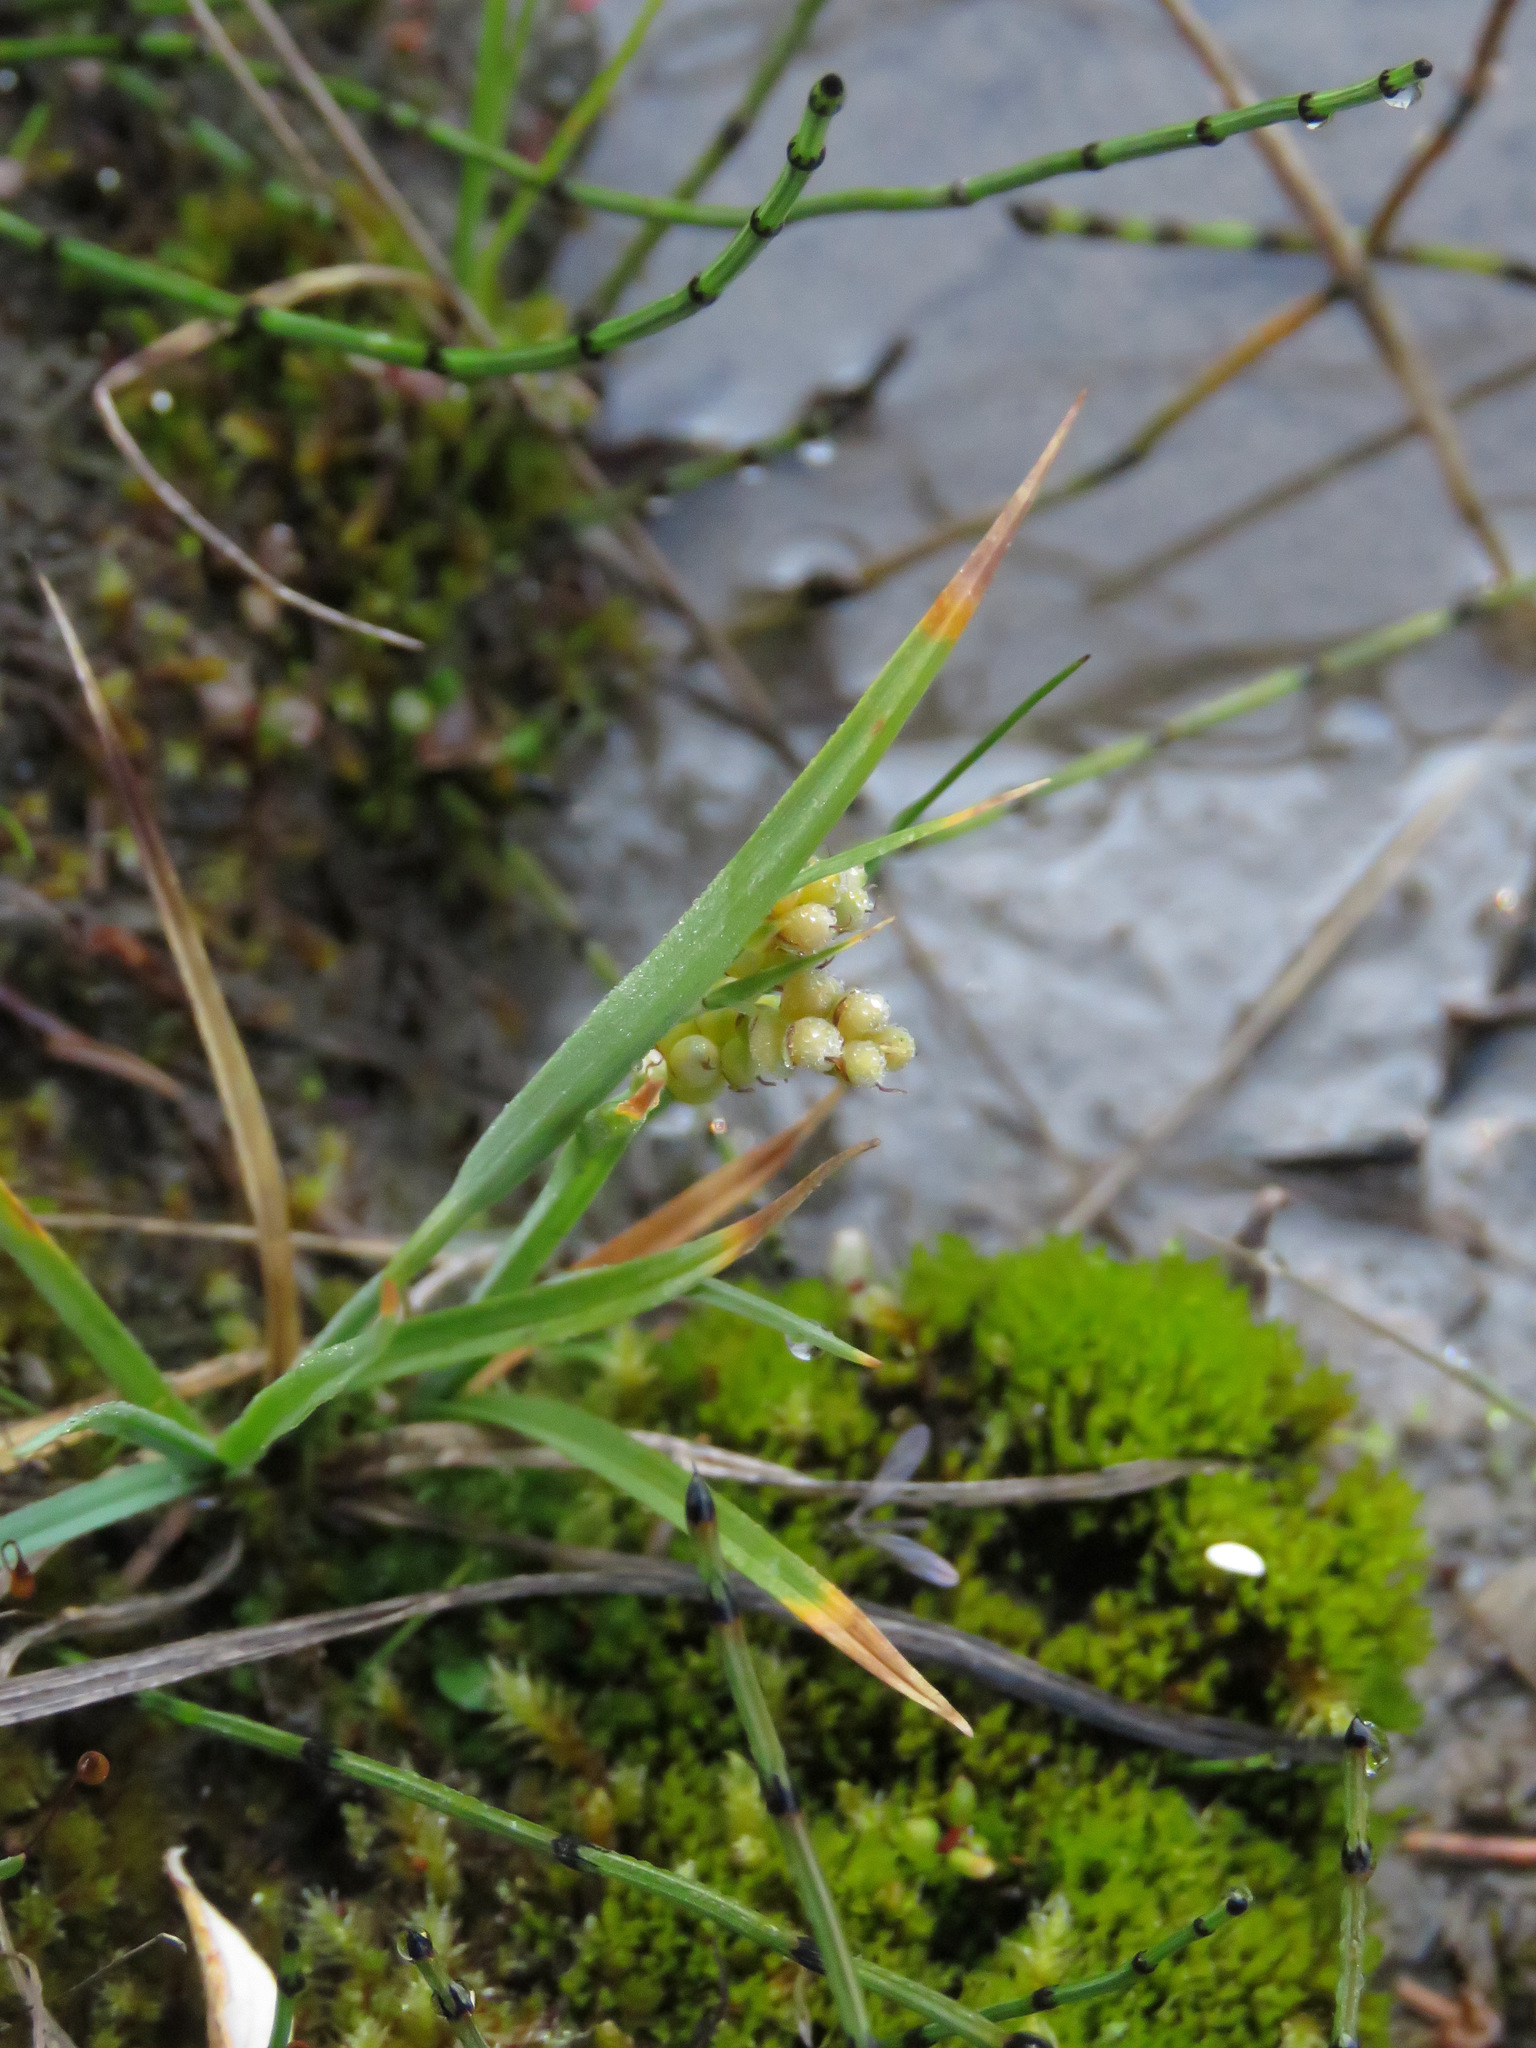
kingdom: Plantae
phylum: Tracheophyta
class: Liliopsida
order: Poales
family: Cyperaceae
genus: Carex
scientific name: Carex aurea
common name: Golden sedge
